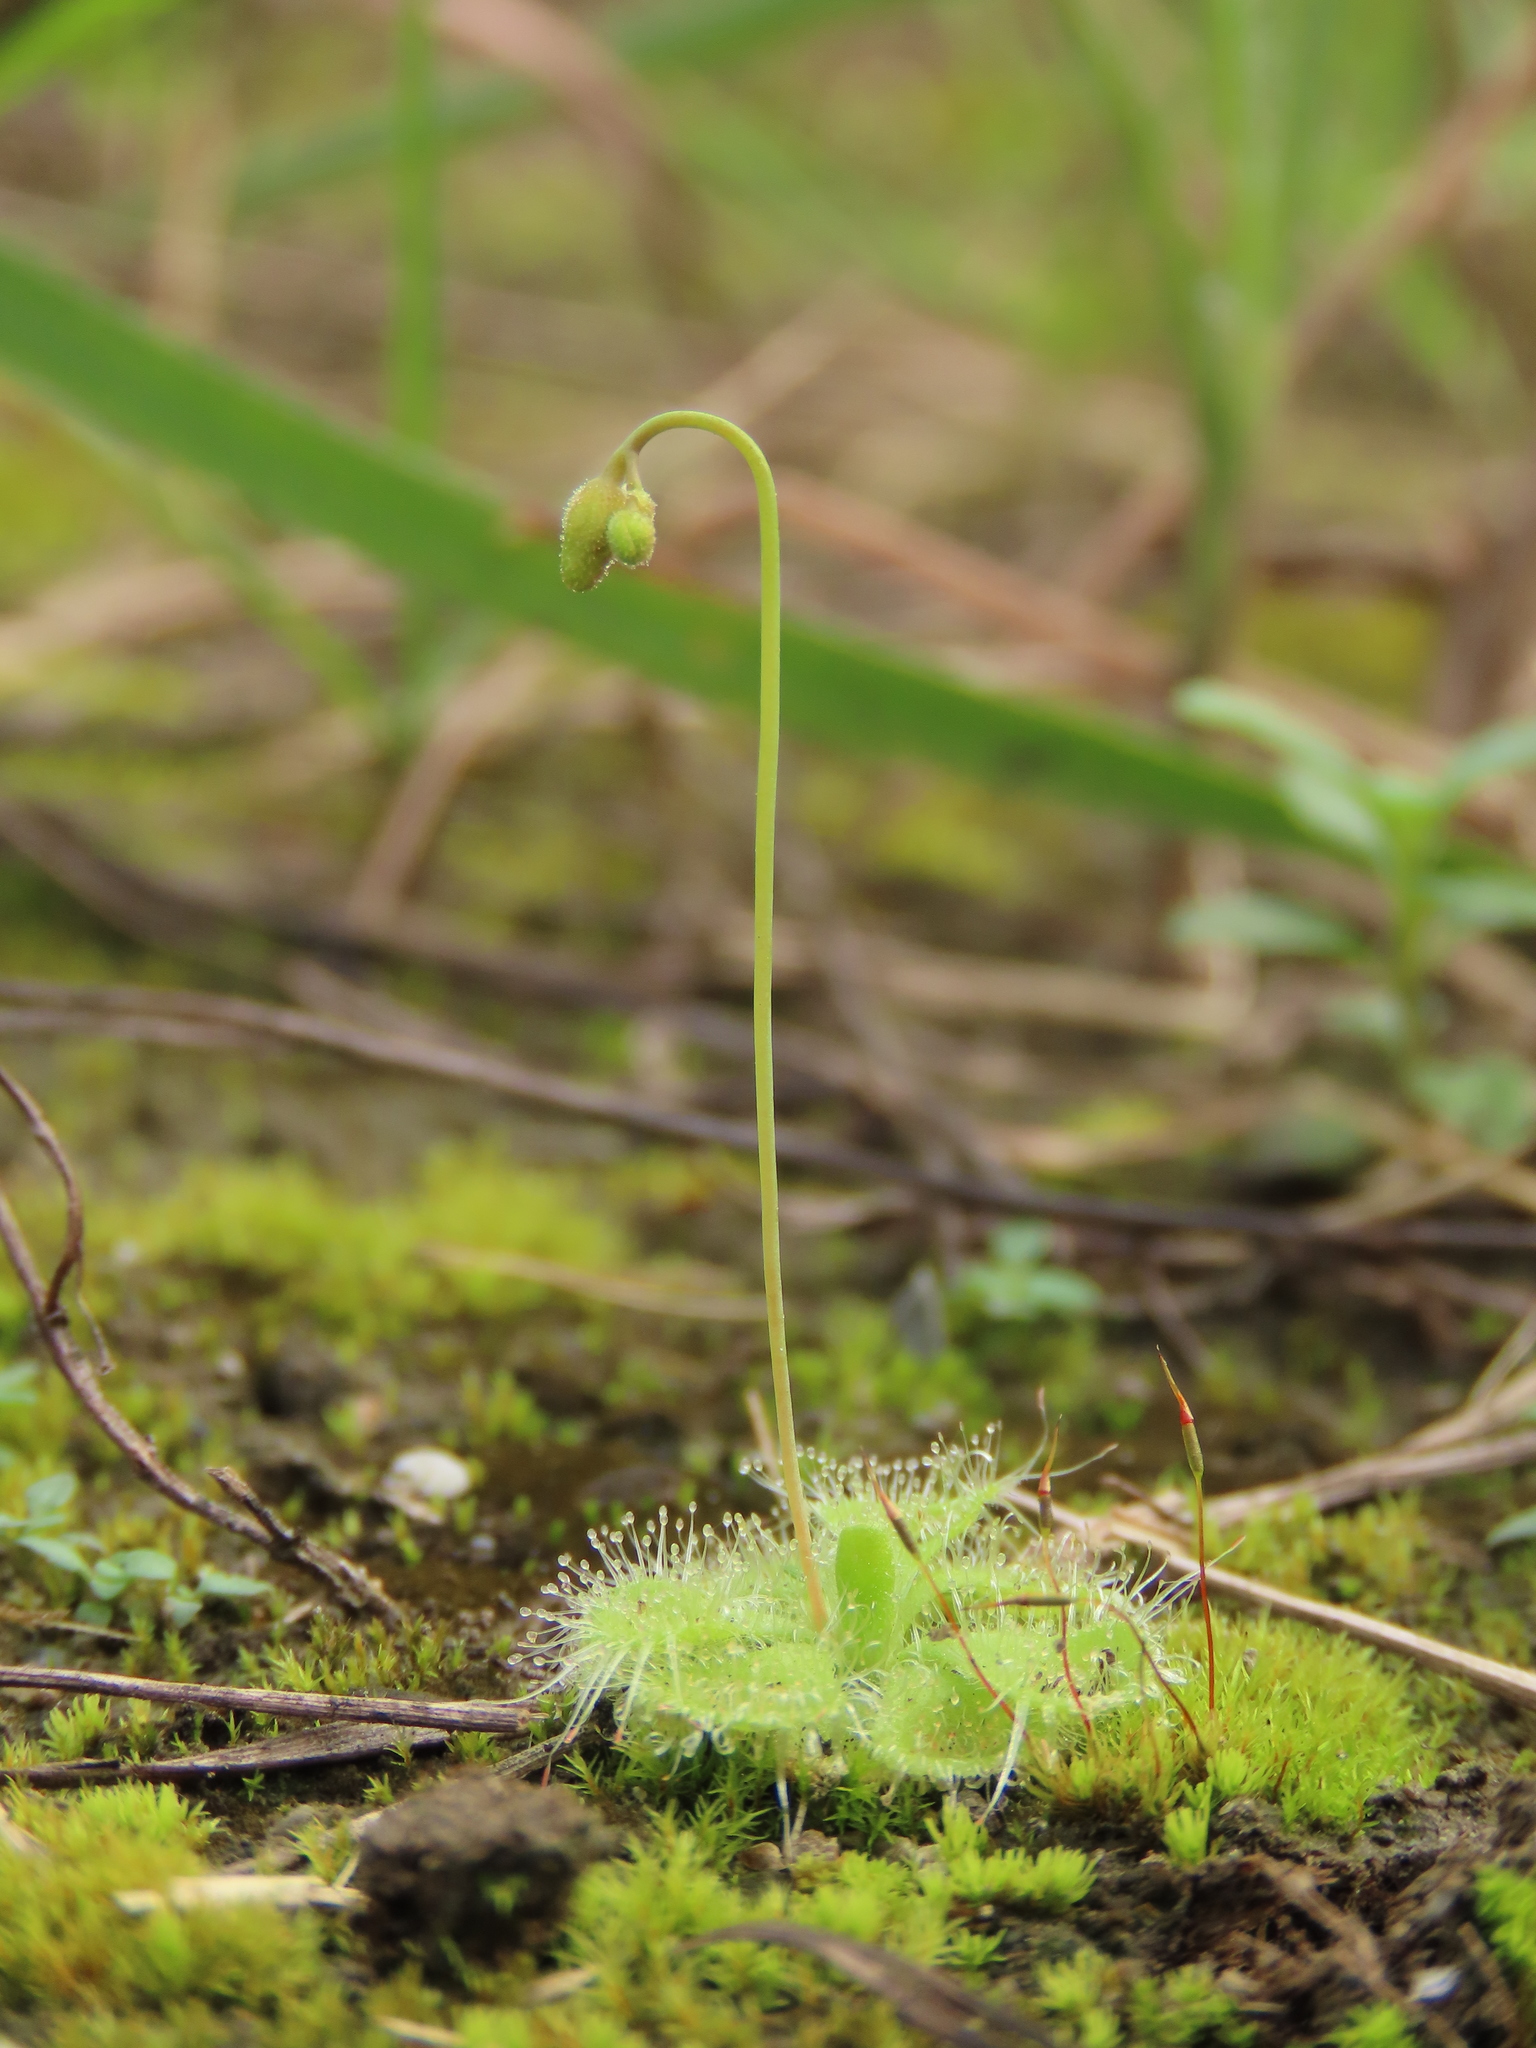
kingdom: Plantae
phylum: Tracheophyta
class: Magnoliopsida
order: Caryophyllales
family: Droseraceae
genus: Drosera
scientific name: Drosera spatulata
